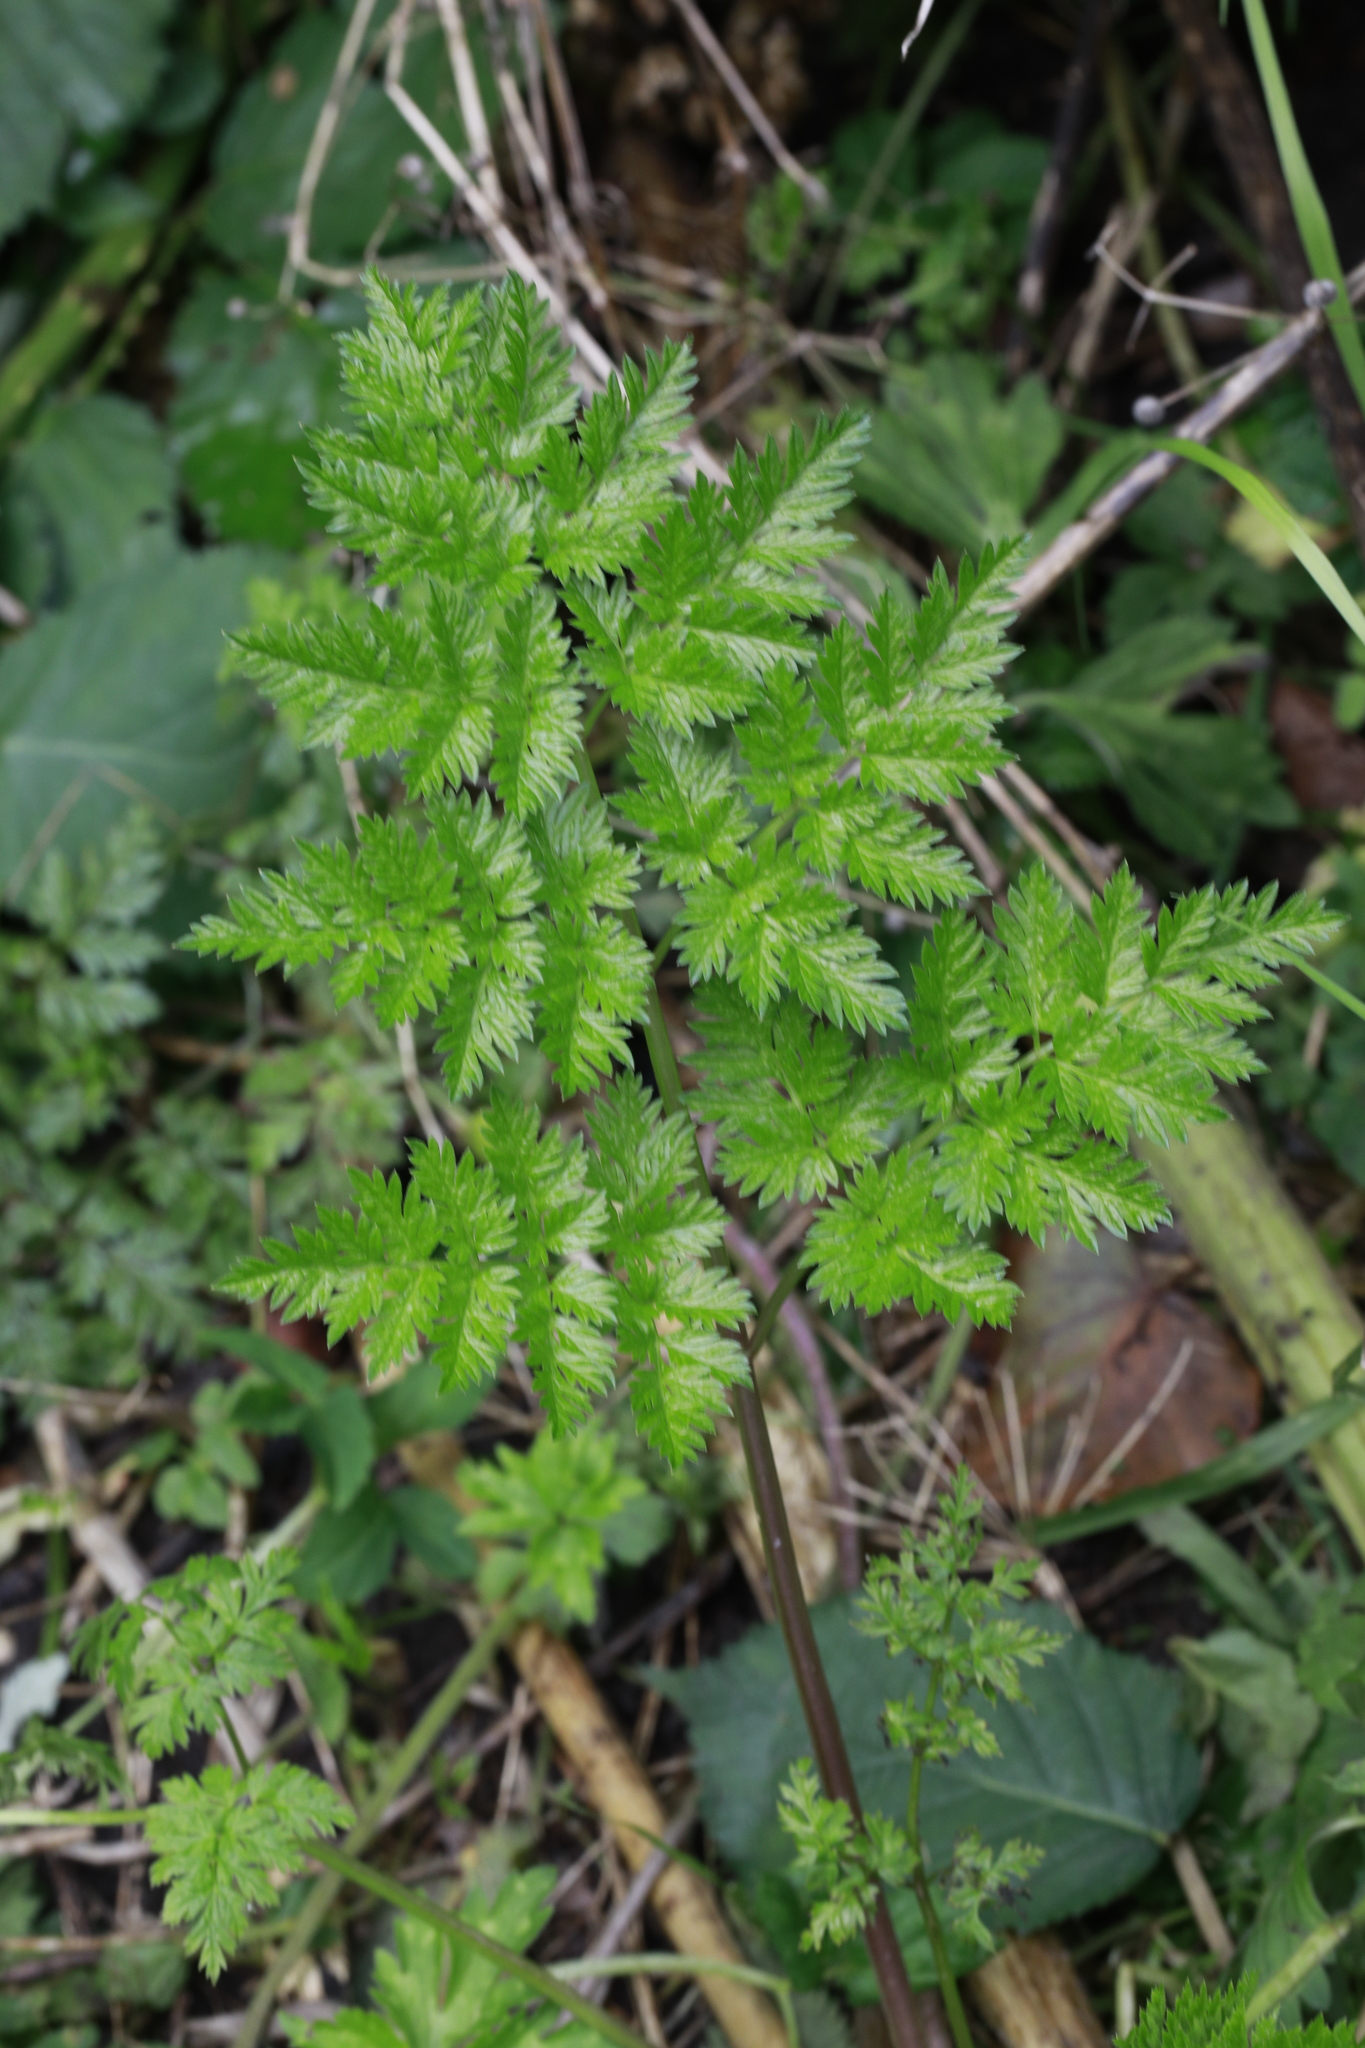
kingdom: Plantae
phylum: Tracheophyta
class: Magnoliopsida
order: Apiales
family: Apiaceae
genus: Anthriscus
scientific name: Anthriscus sylvestris
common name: Cow parsley
